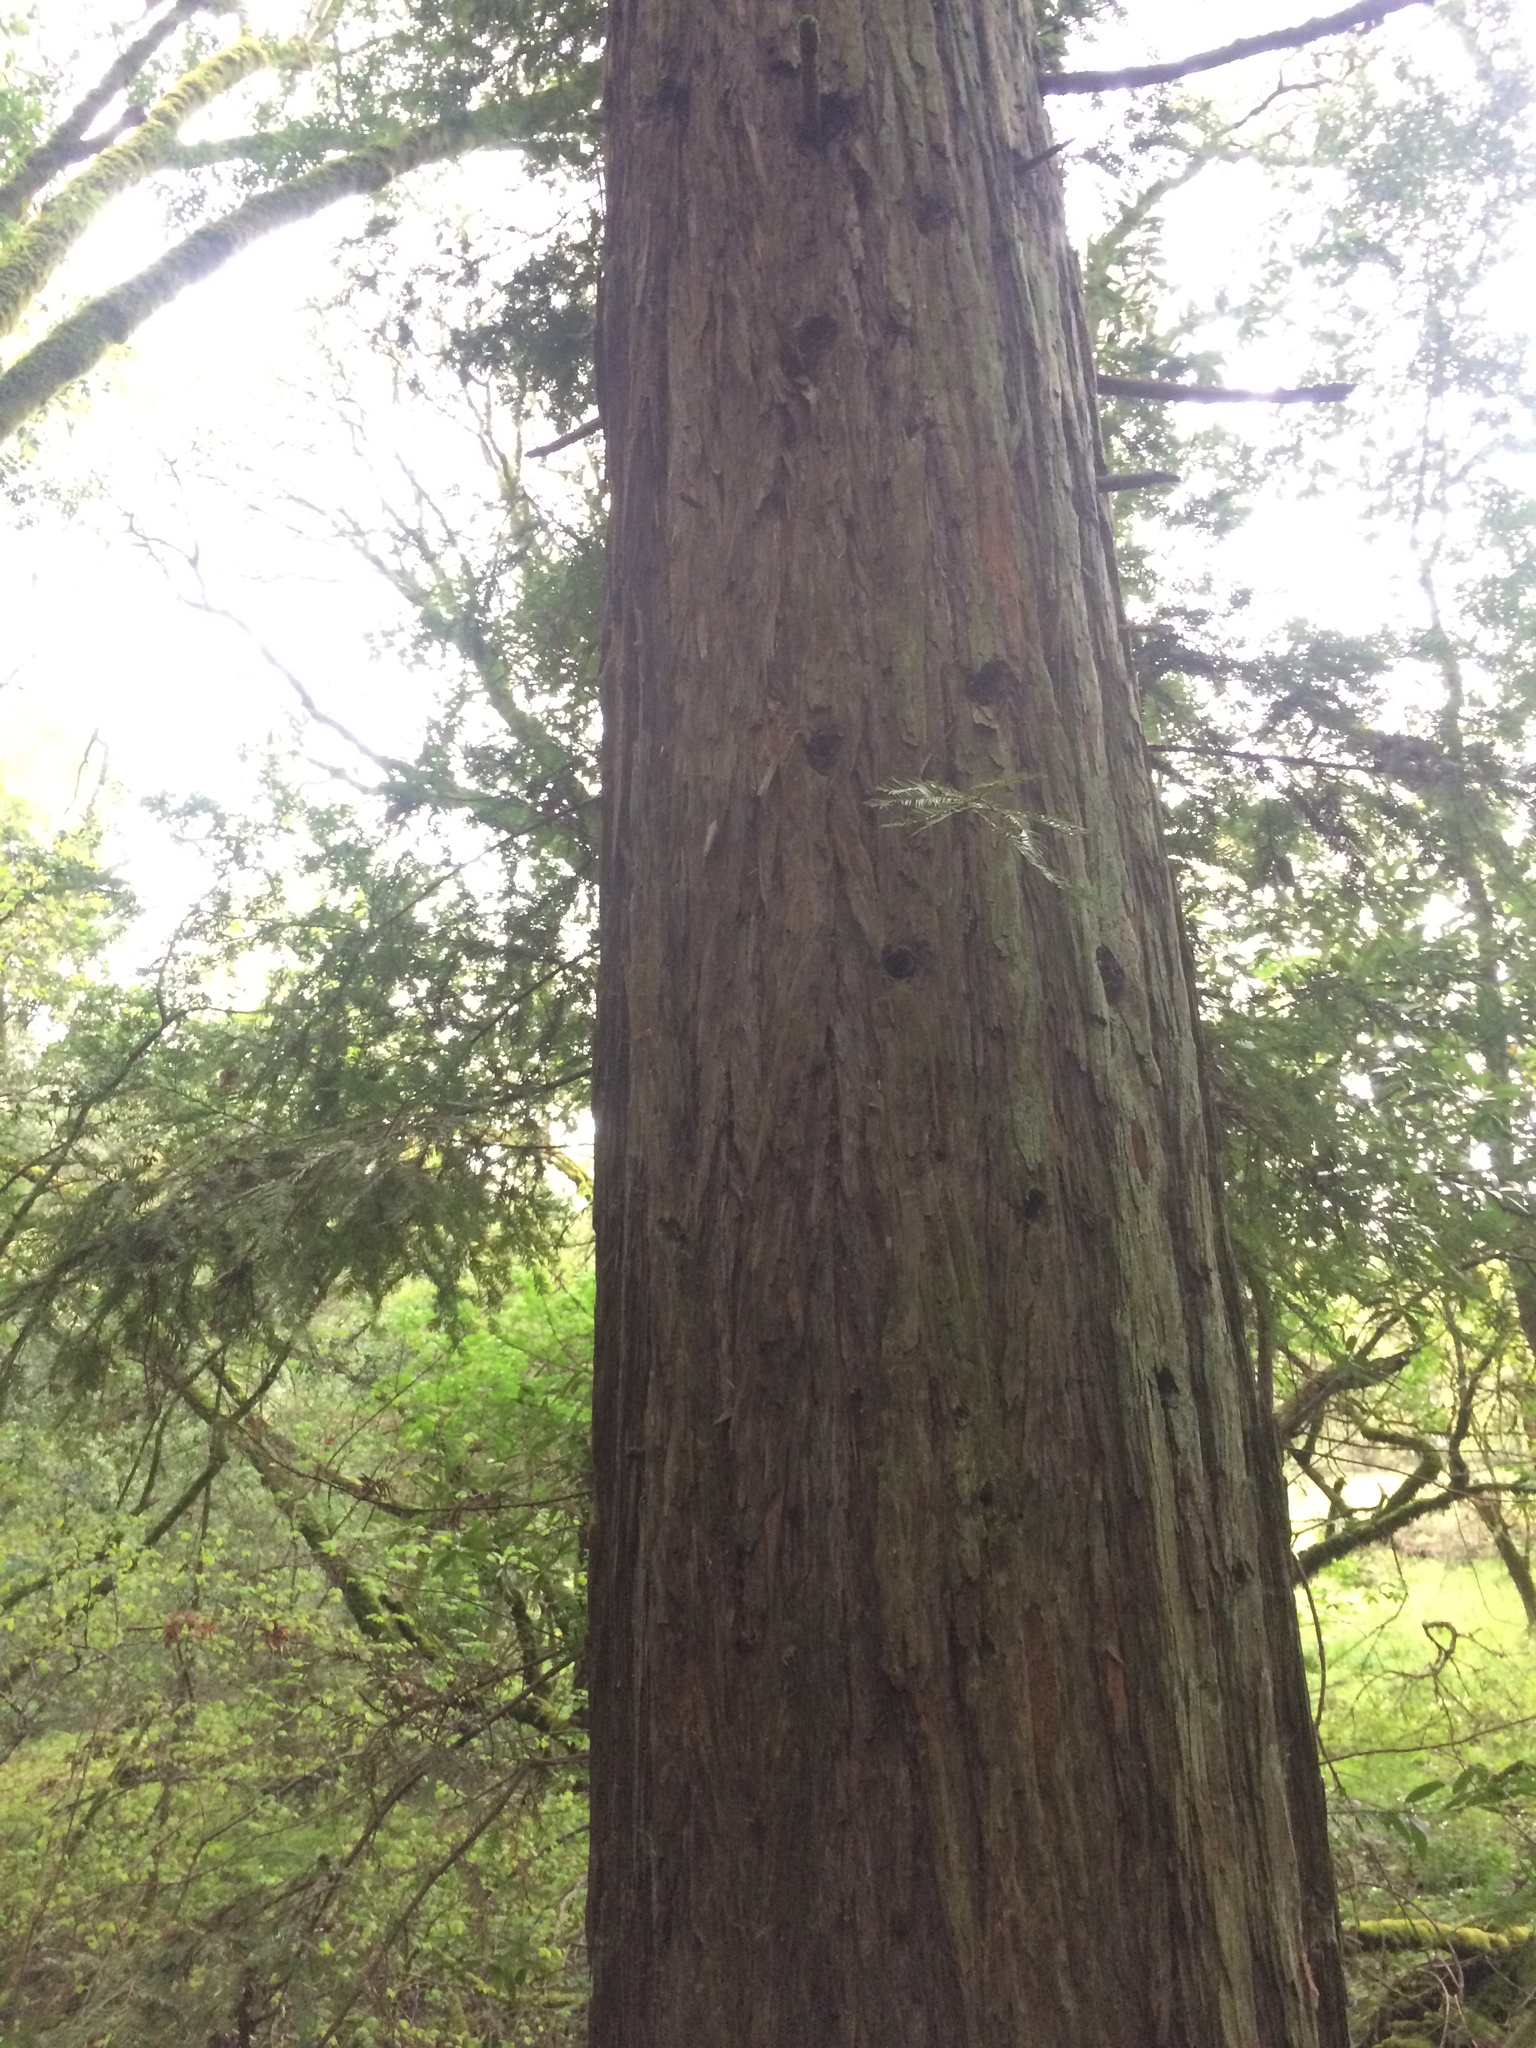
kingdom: Plantae
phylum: Tracheophyta
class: Pinopsida
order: Pinales
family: Cupressaceae
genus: Sequoia
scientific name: Sequoia sempervirens
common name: Coast redwood
